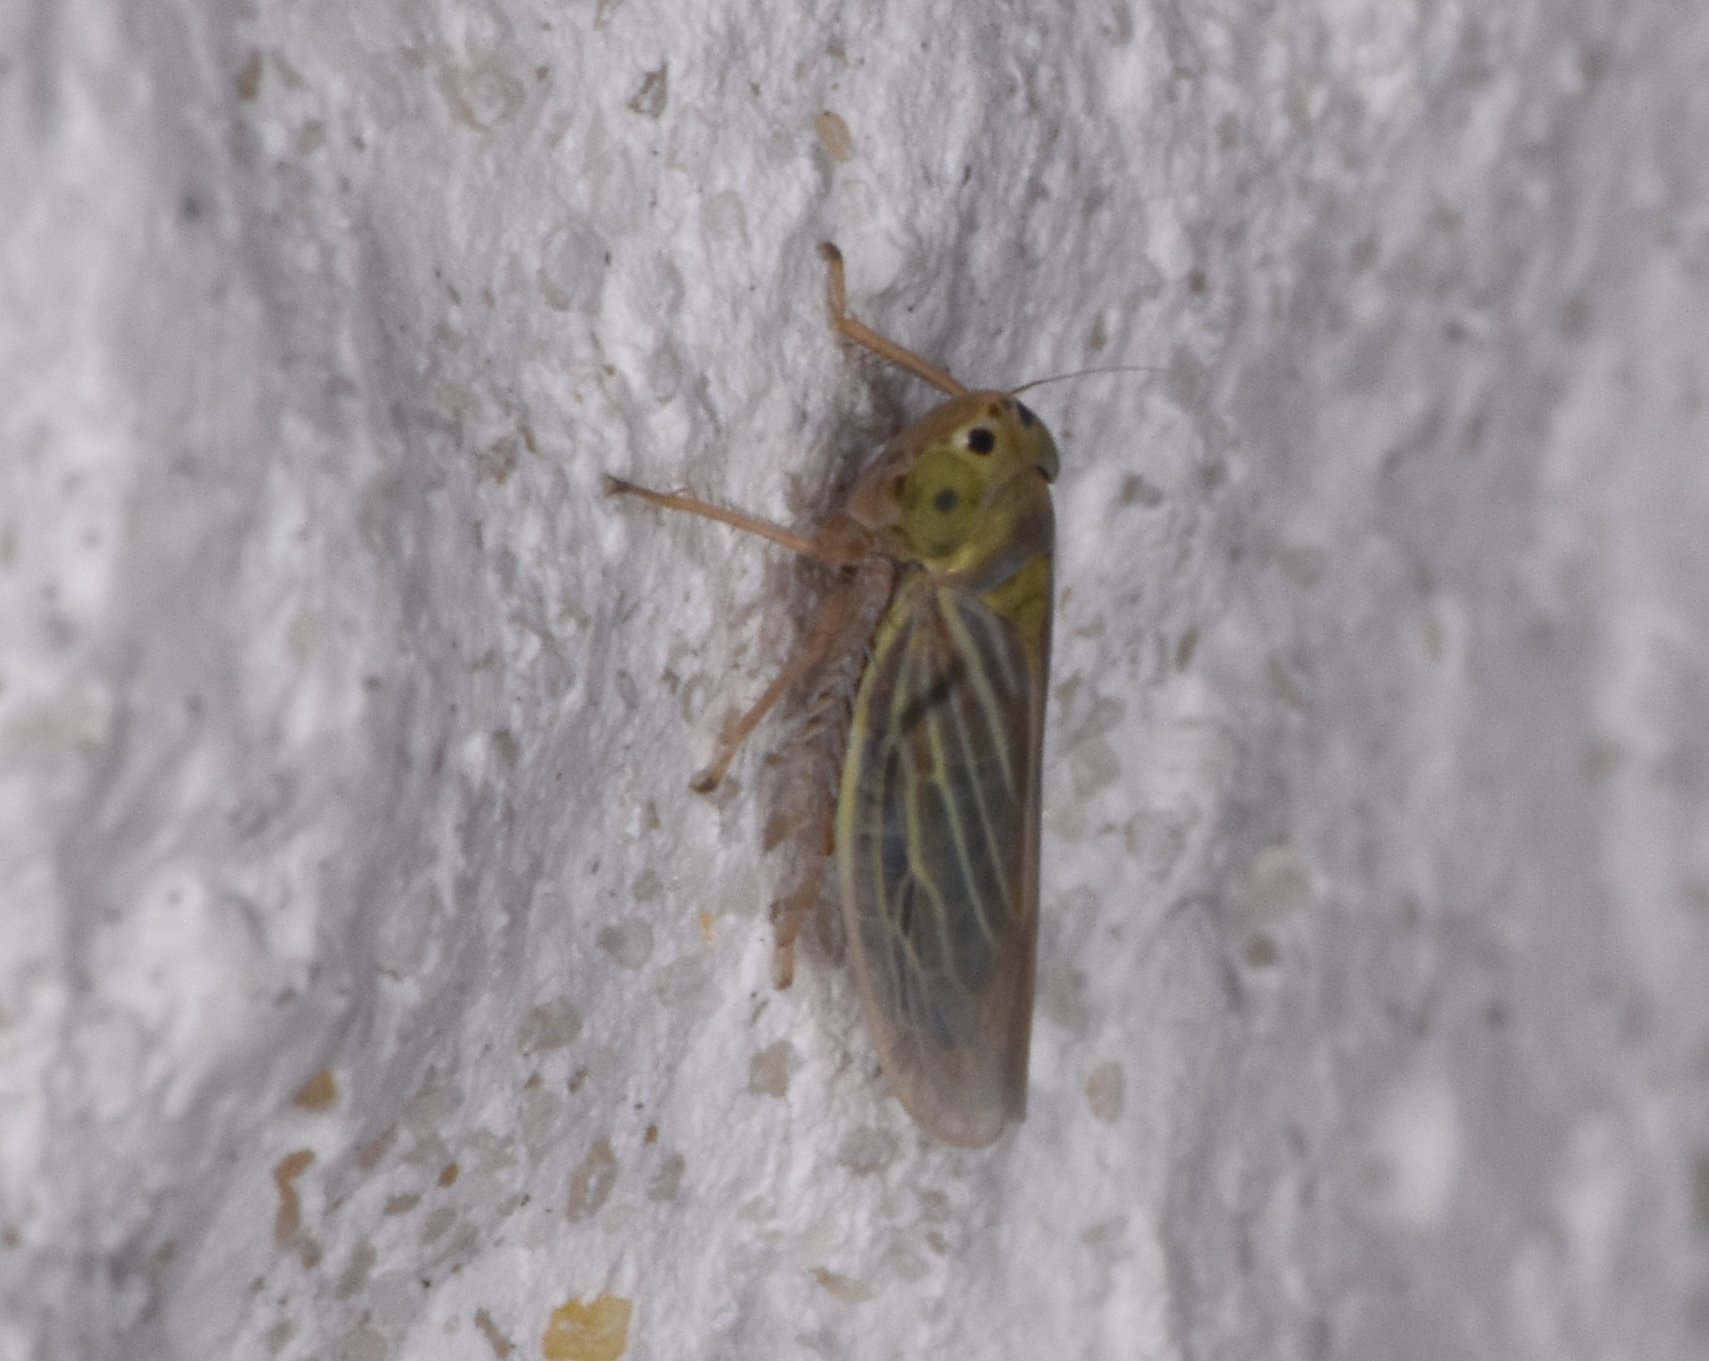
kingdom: Animalia
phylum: Arthropoda
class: Insecta
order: Hemiptera
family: Cicadellidae
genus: Graminella
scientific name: Graminella cognita
